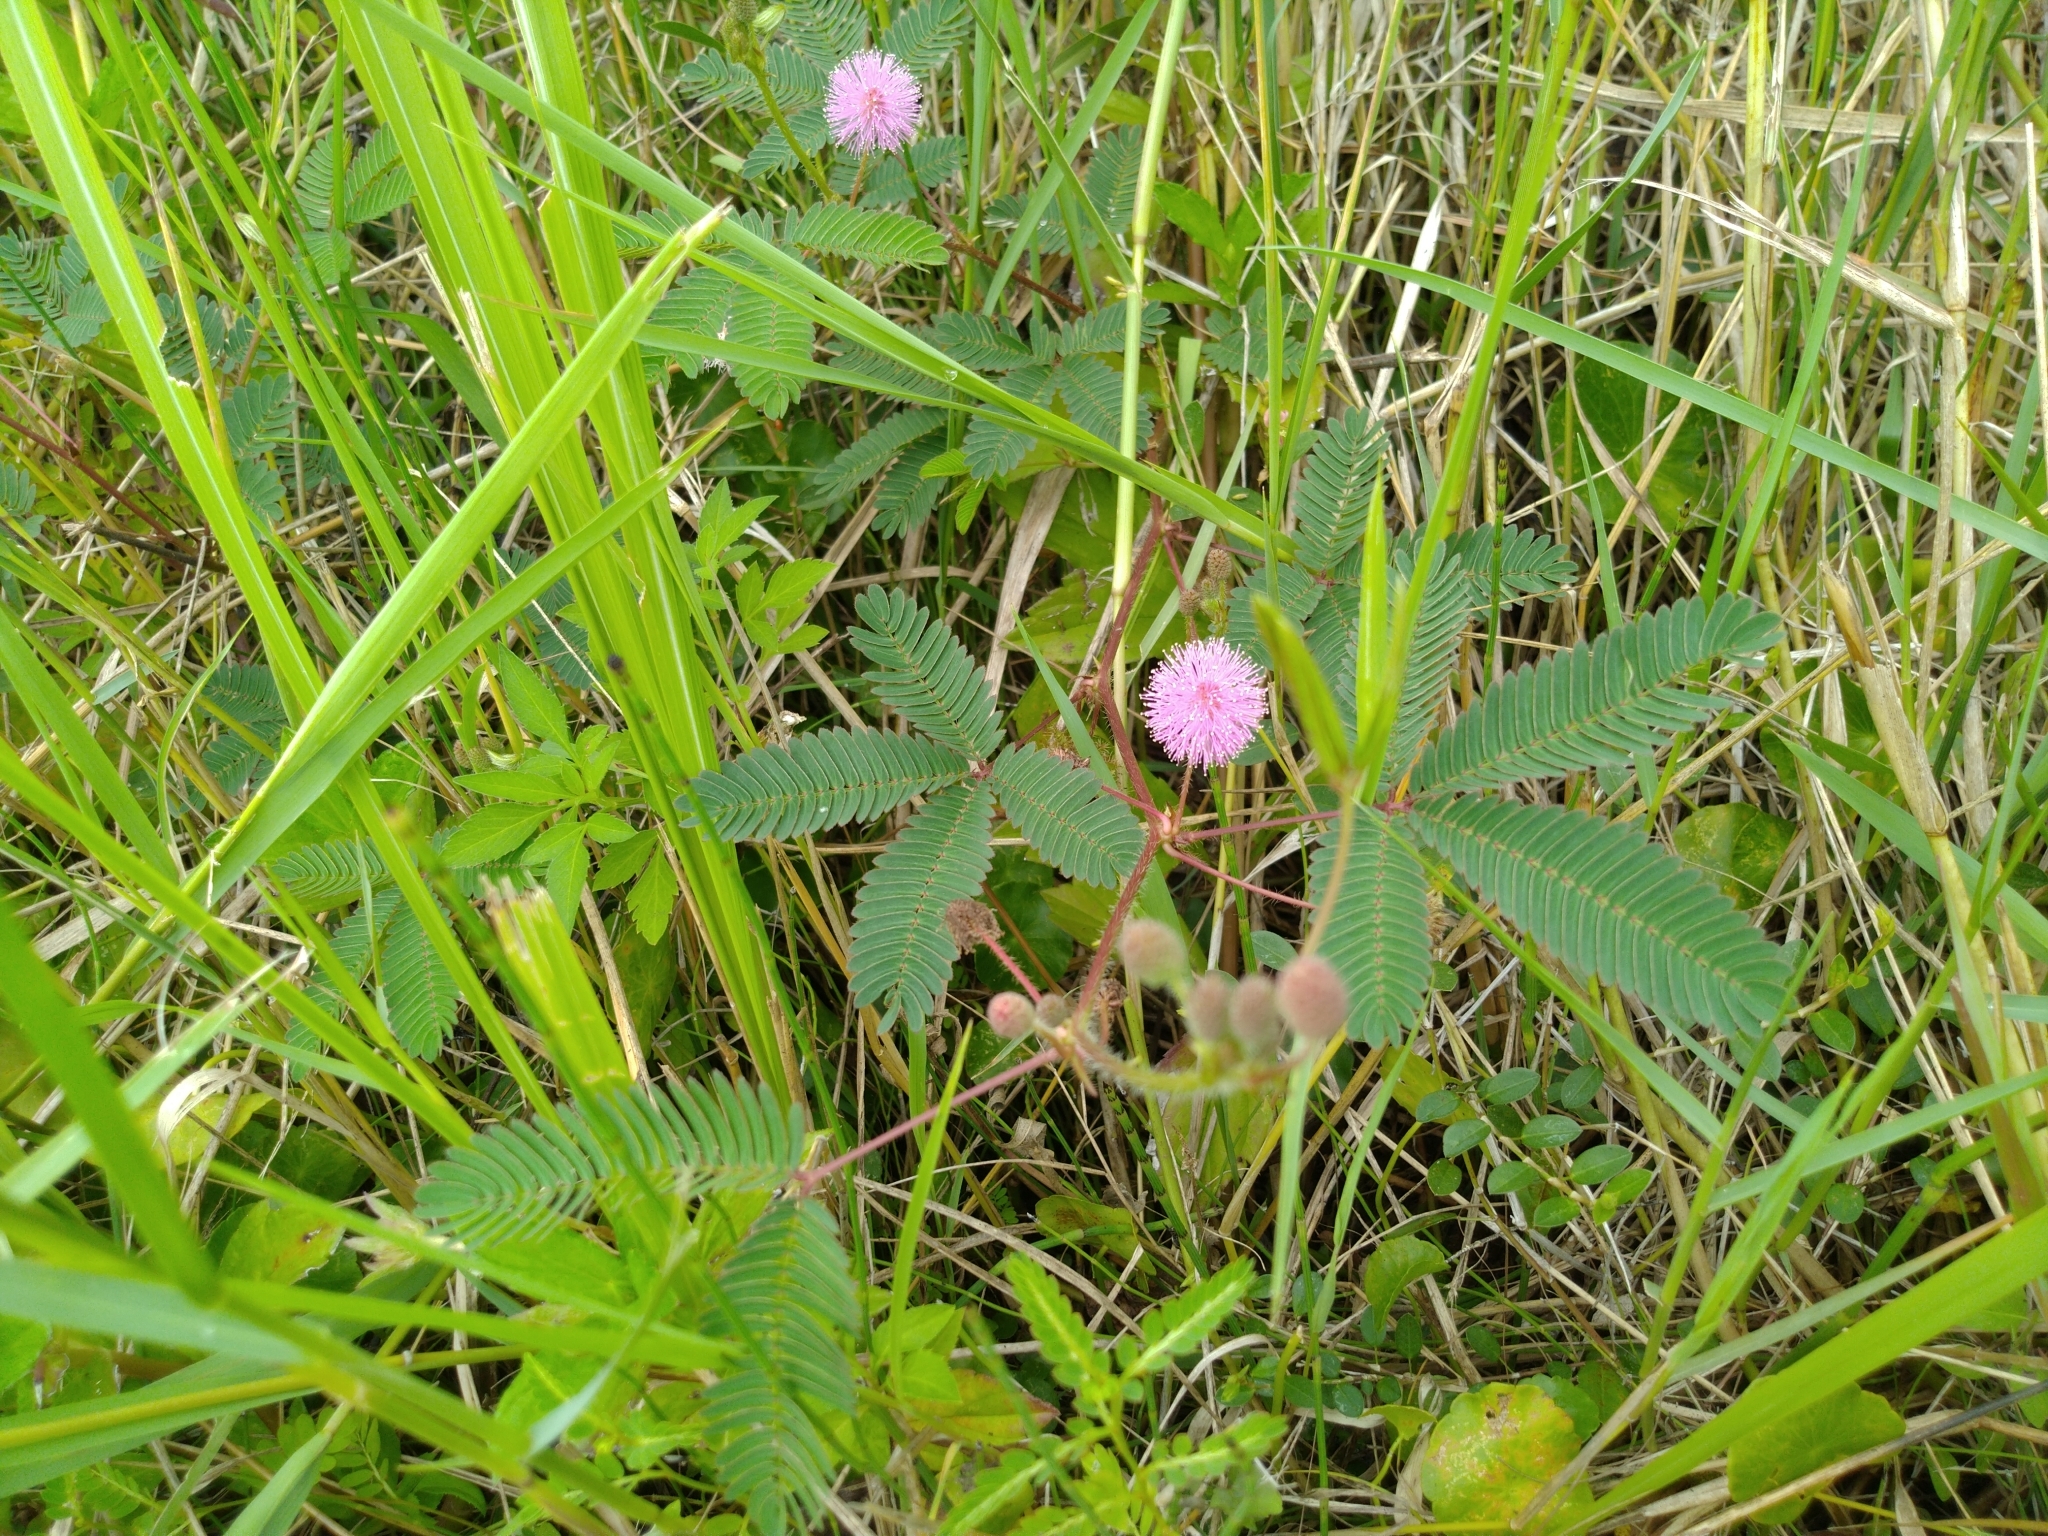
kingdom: Plantae
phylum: Tracheophyta
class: Magnoliopsida
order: Fabales
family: Fabaceae
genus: Mimosa
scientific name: Mimosa pudica
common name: Sensitive plant
